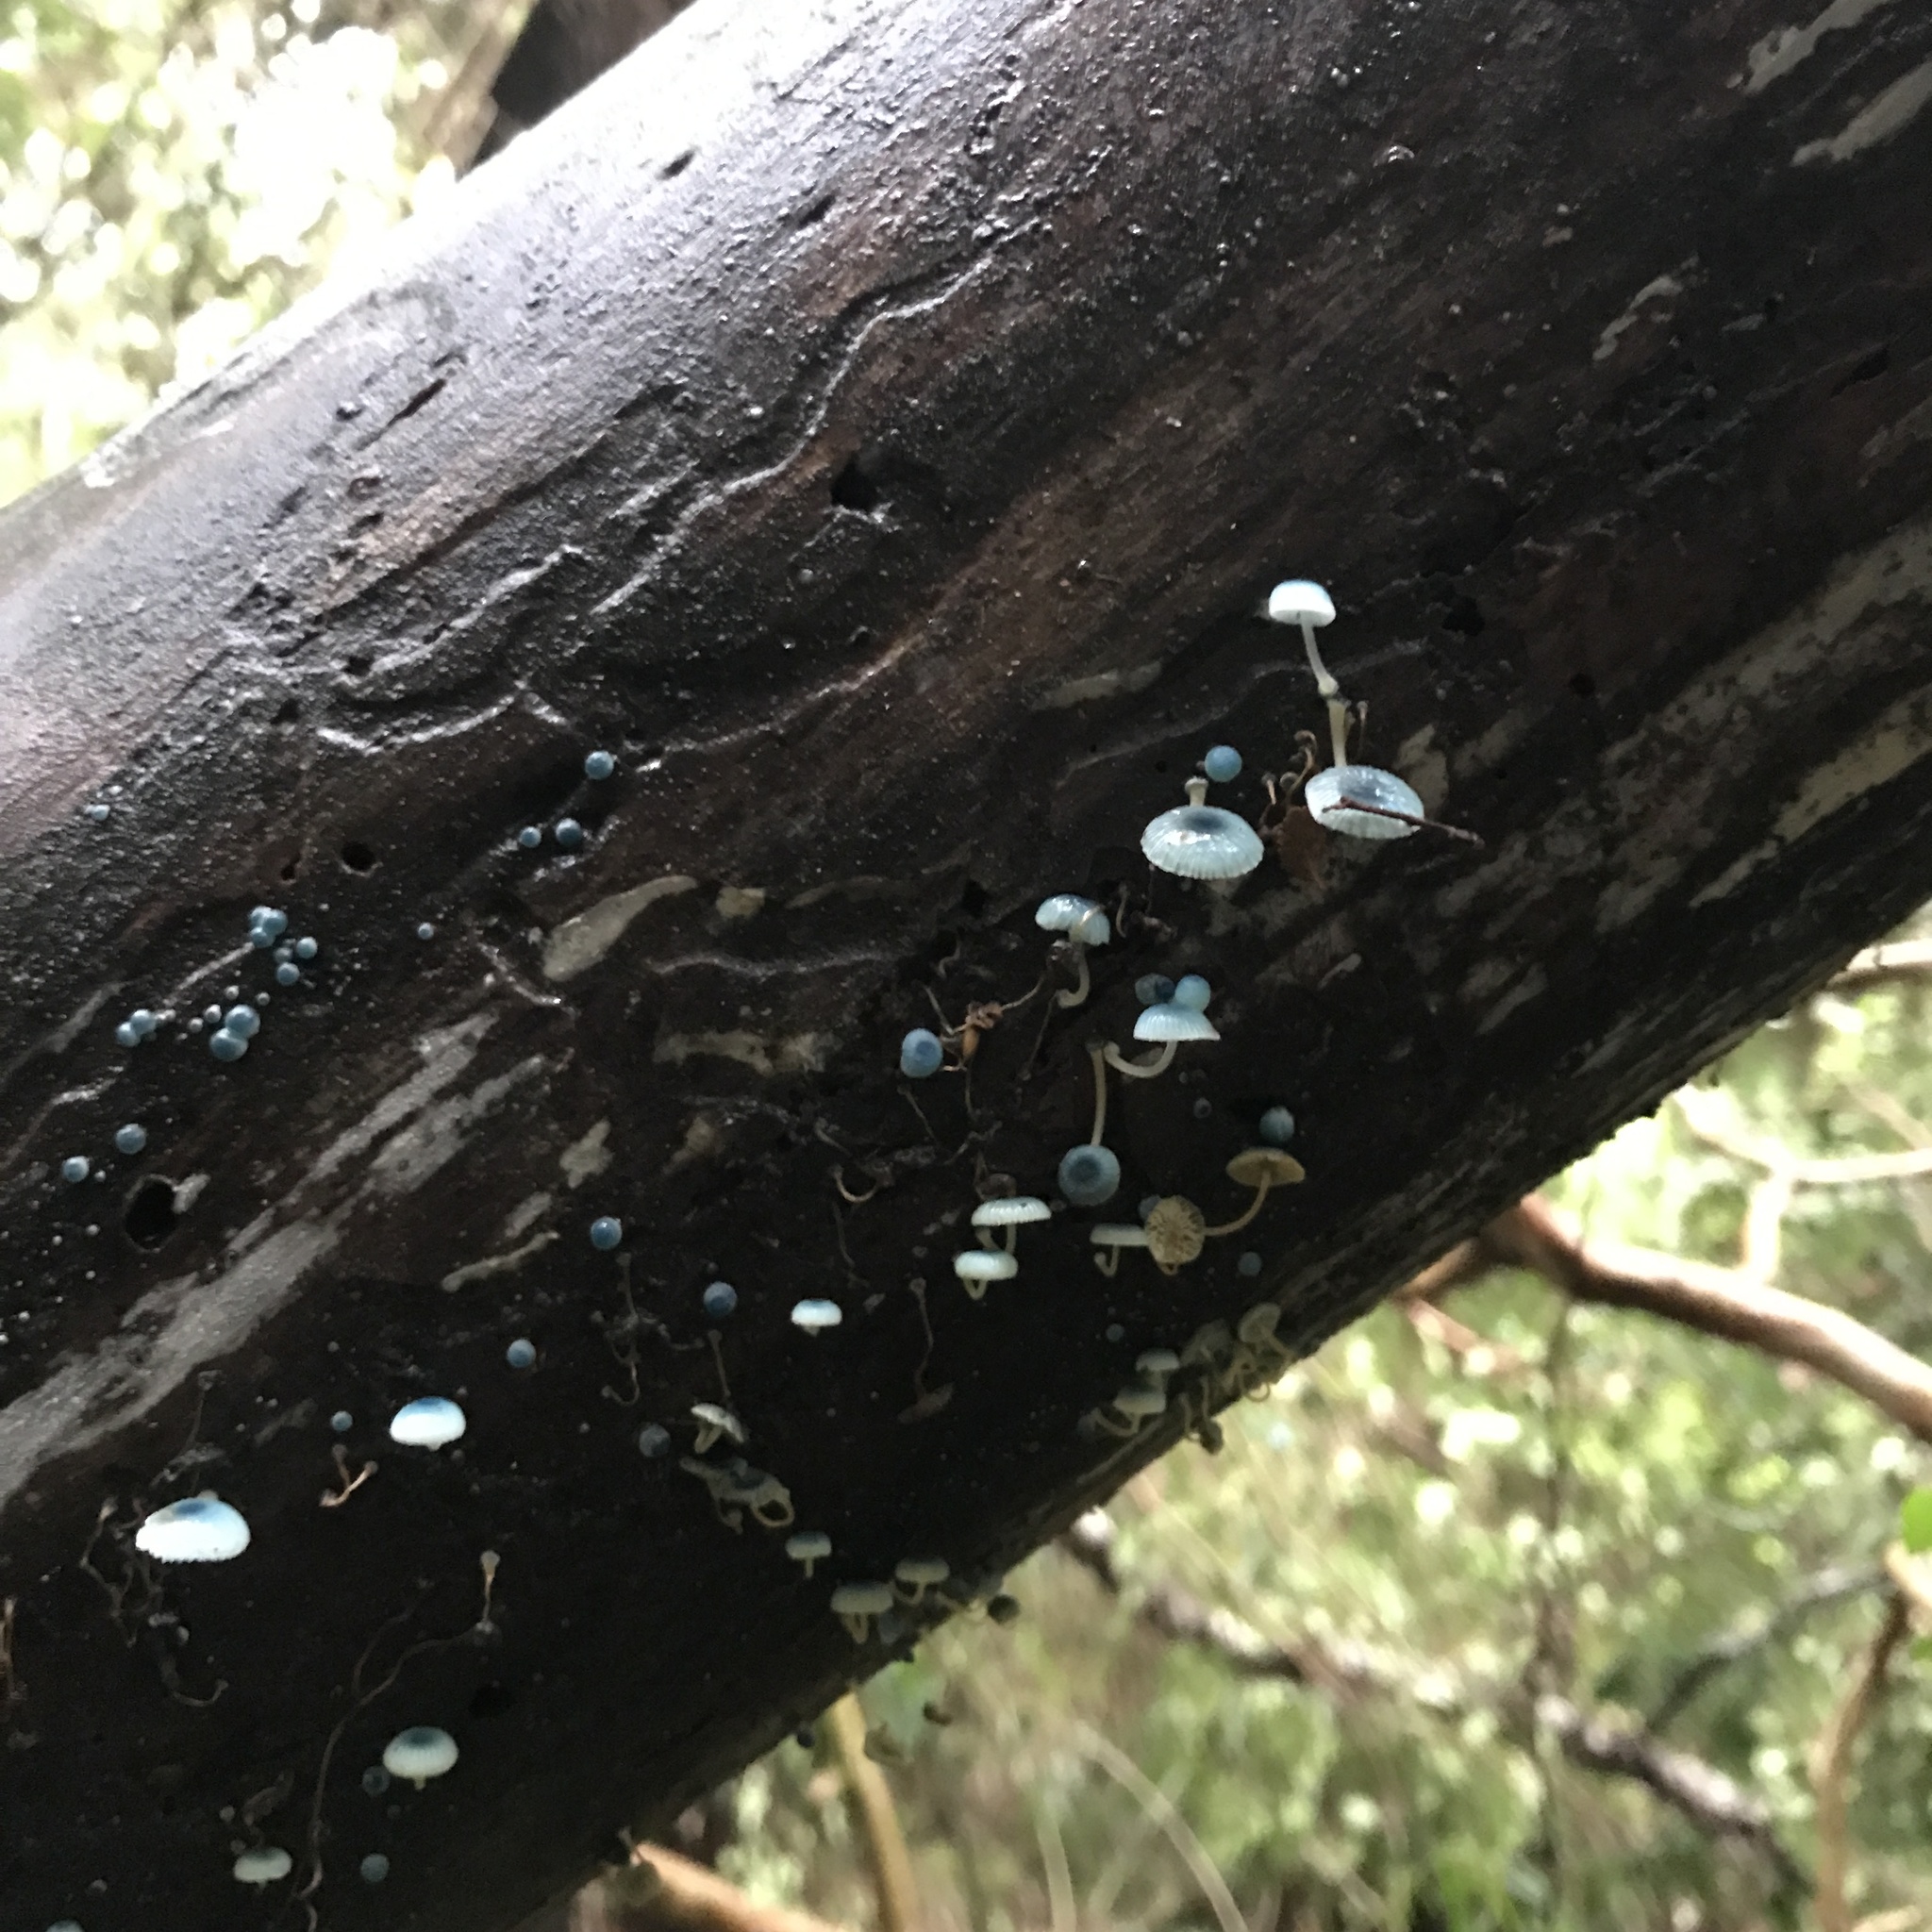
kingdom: Fungi
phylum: Basidiomycota
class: Agaricomycetes
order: Agaricales
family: Mycenaceae
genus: Mycena
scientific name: Mycena cyanocephala
